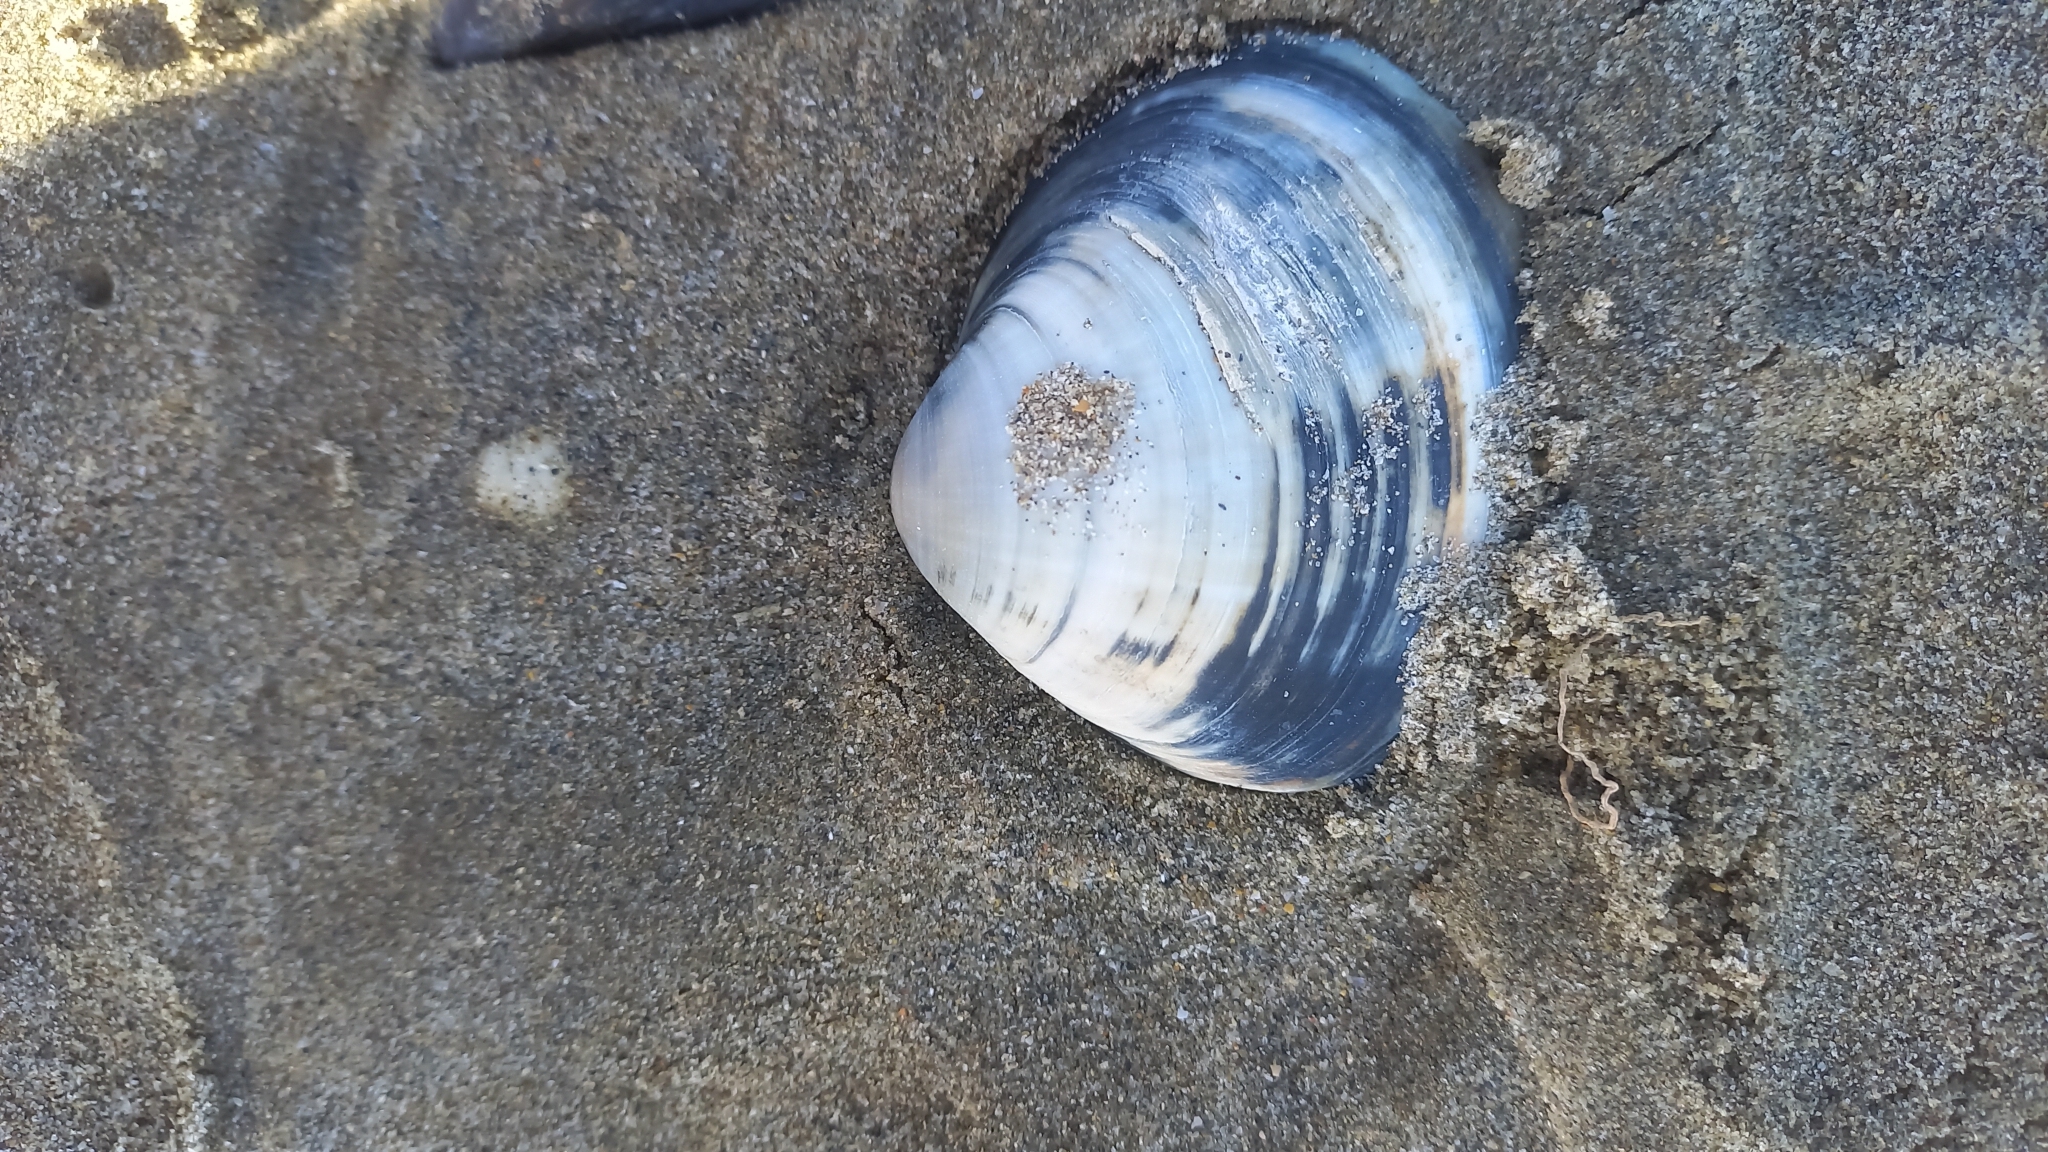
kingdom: Animalia
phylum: Mollusca
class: Bivalvia
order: Venerida
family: Mactridae
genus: Mactra
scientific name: Mactra stultorum
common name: Rayed trough shell
